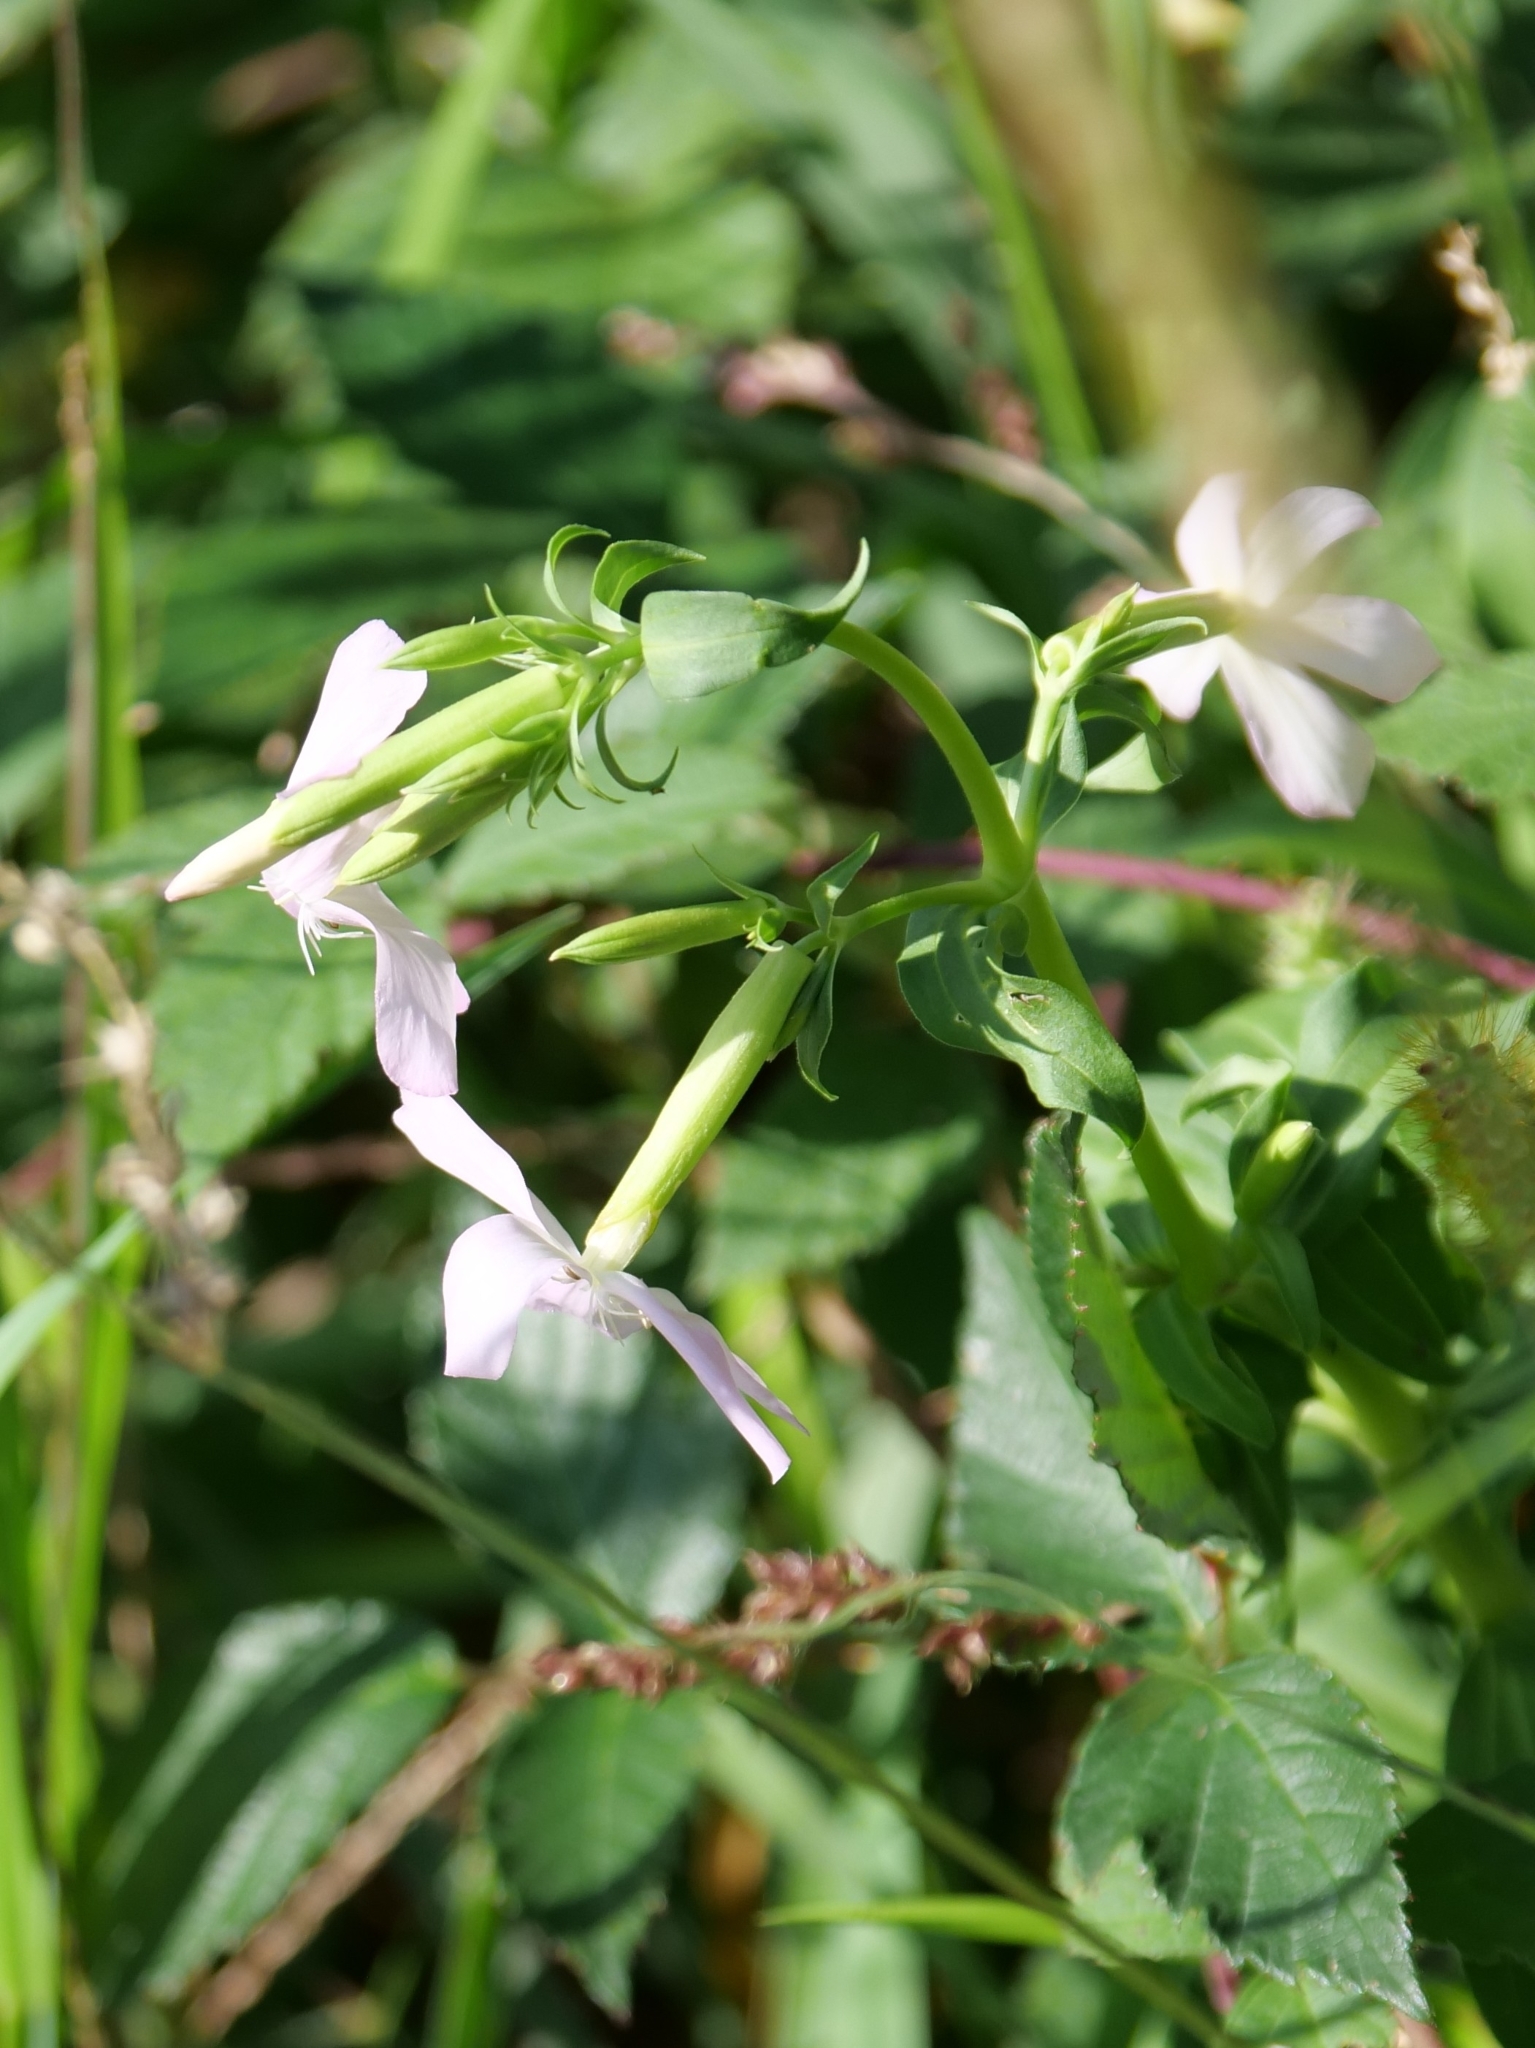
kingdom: Plantae
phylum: Tracheophyta
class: Magnoliopsida
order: Caryophyllales
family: Caryophyllaceae
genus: Saponaria
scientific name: Saponaria officinalis
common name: Soapwort
